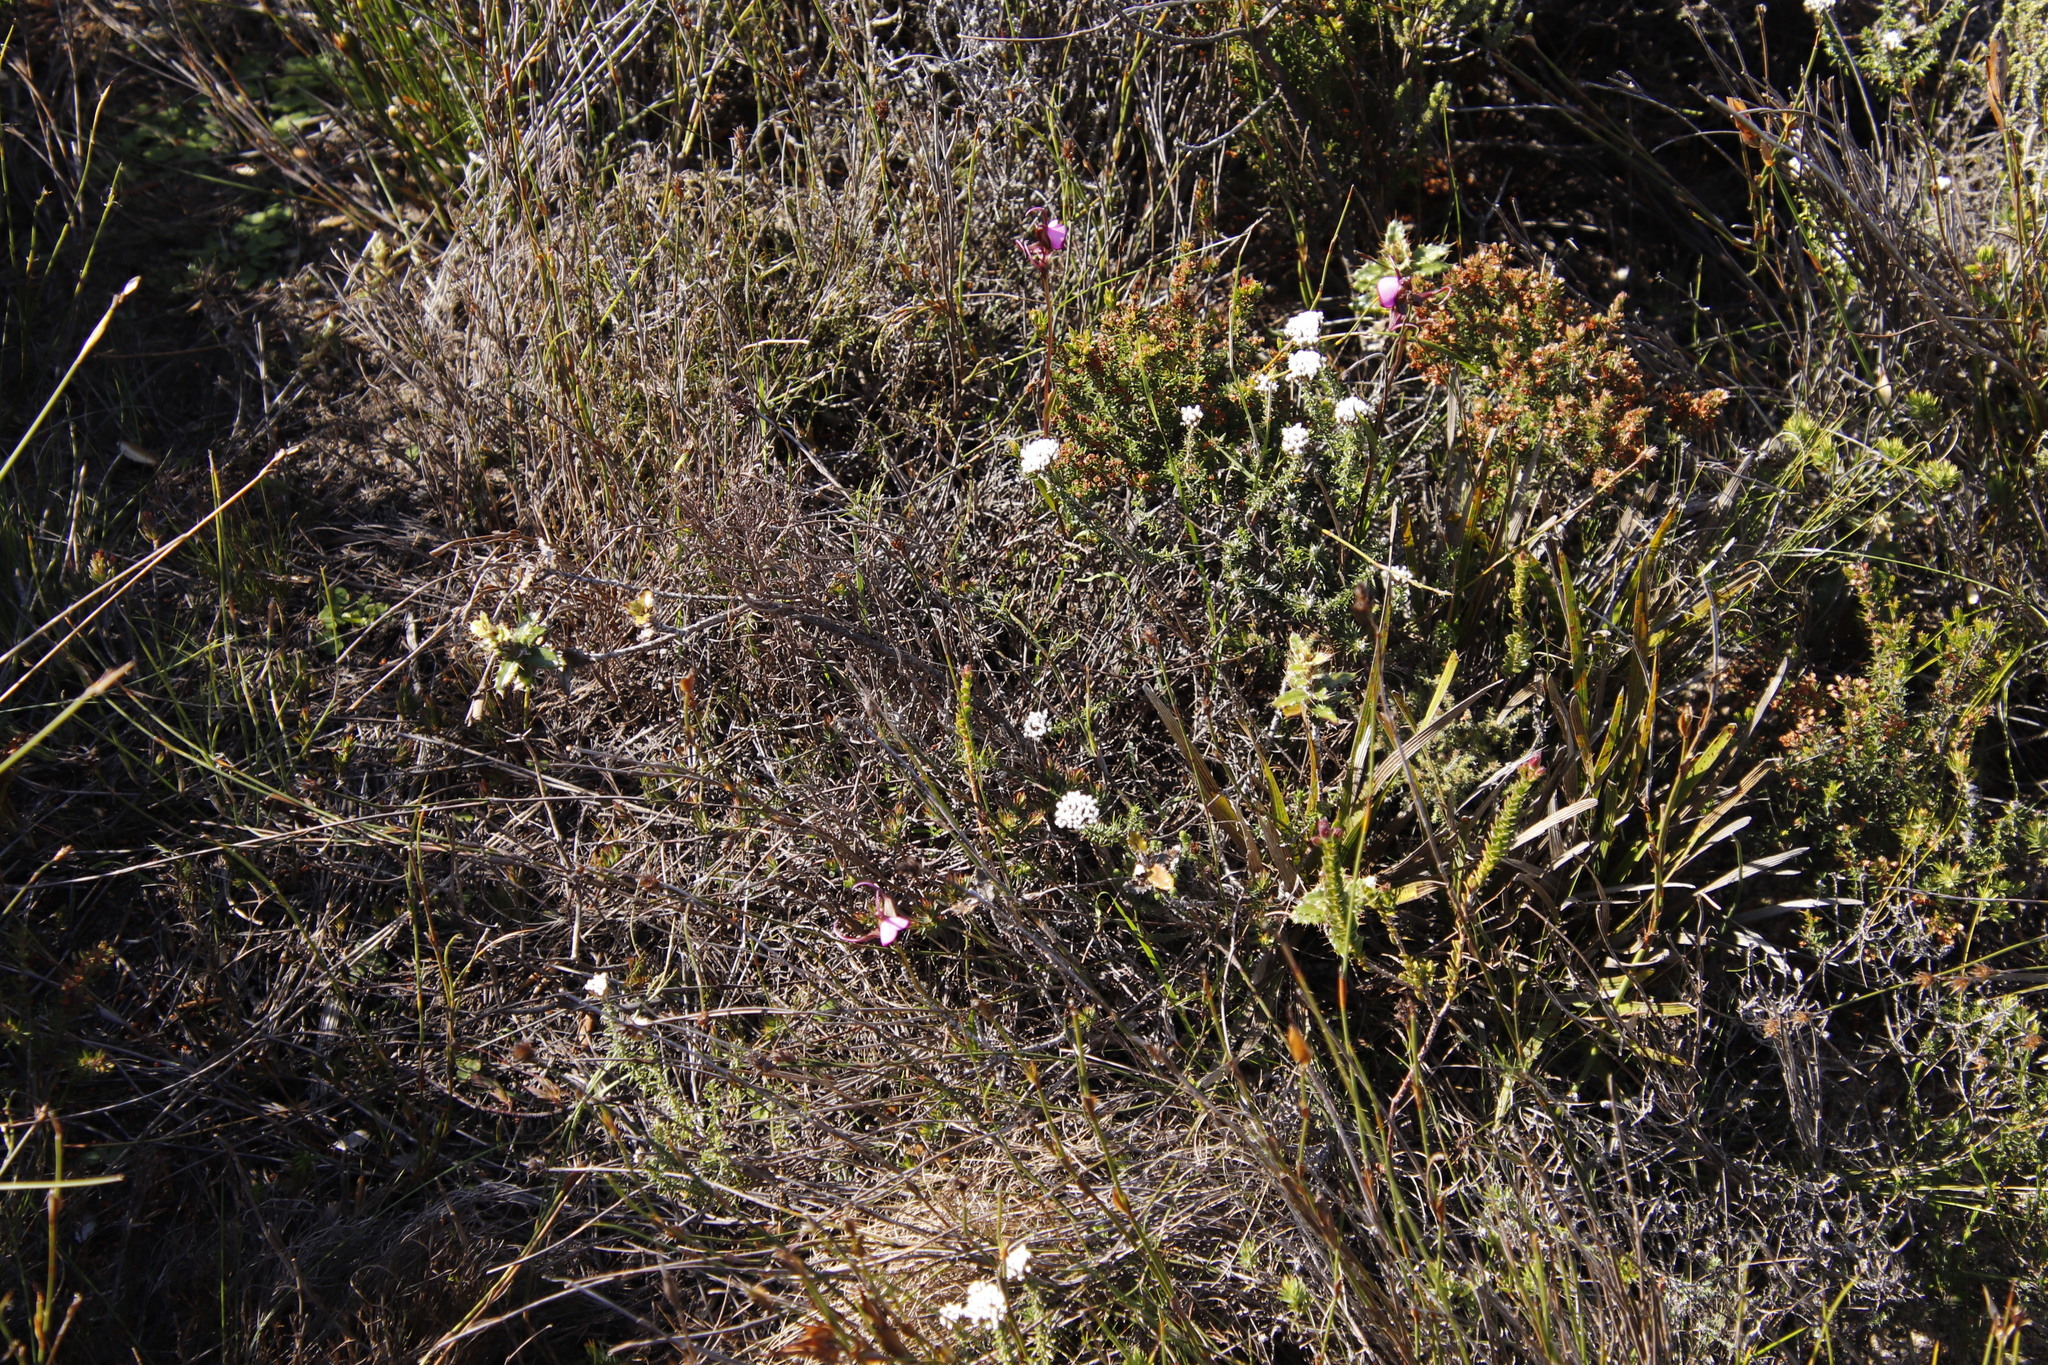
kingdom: Plantae
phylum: Tracheophyta
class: Liliopsida
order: Asparagales
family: Orchidaceae
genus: Disperis
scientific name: Disperis capensis
